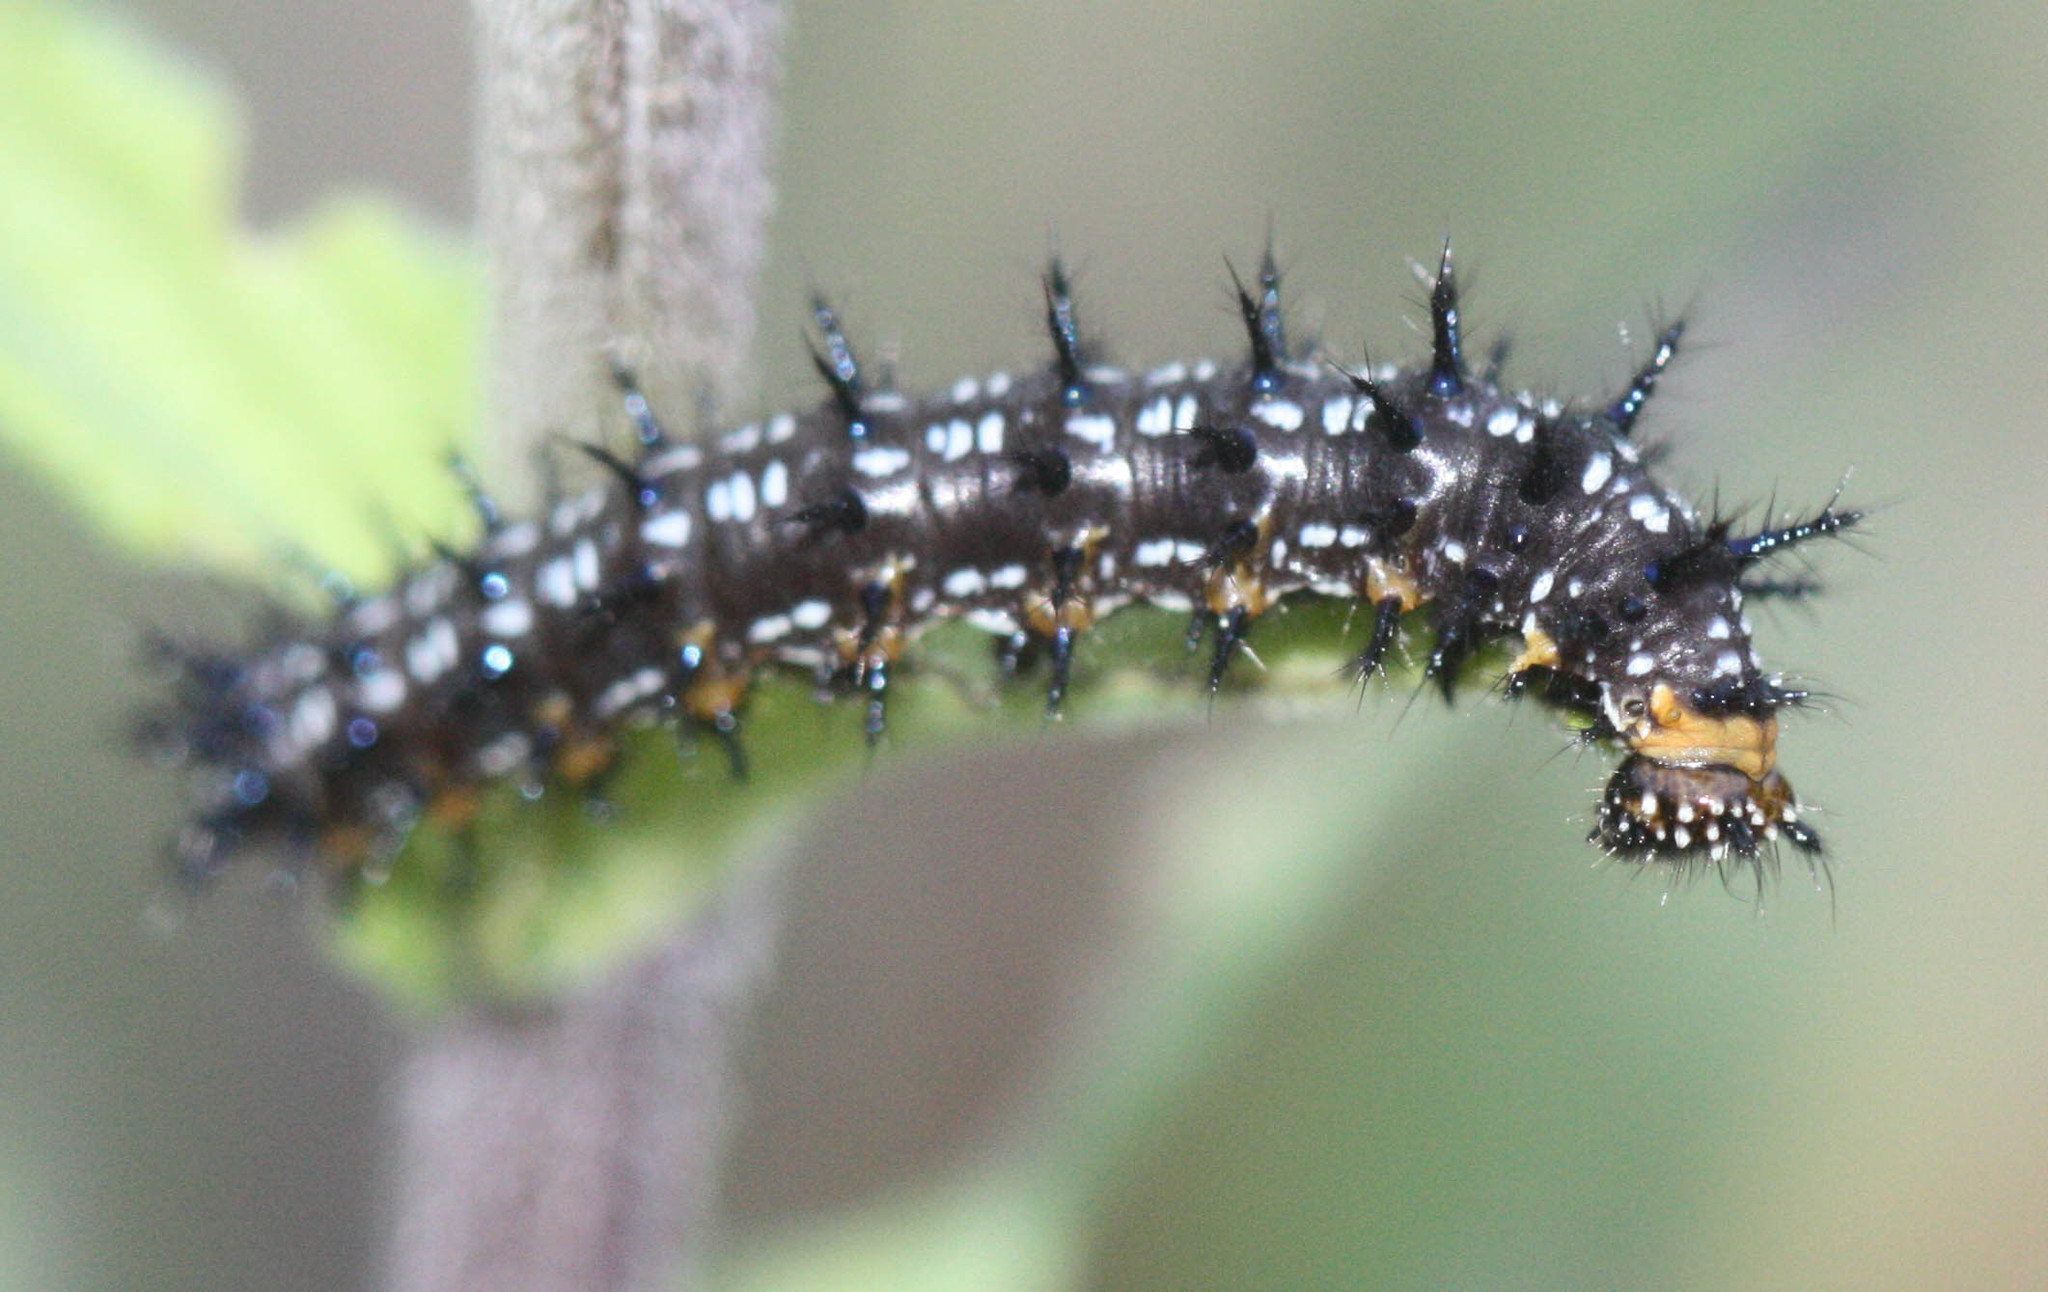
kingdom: Animalia
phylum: Arthropoda
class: Insecta
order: Lepidoptera
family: Nymphalidae
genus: Junonia
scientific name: Junonia grisea
